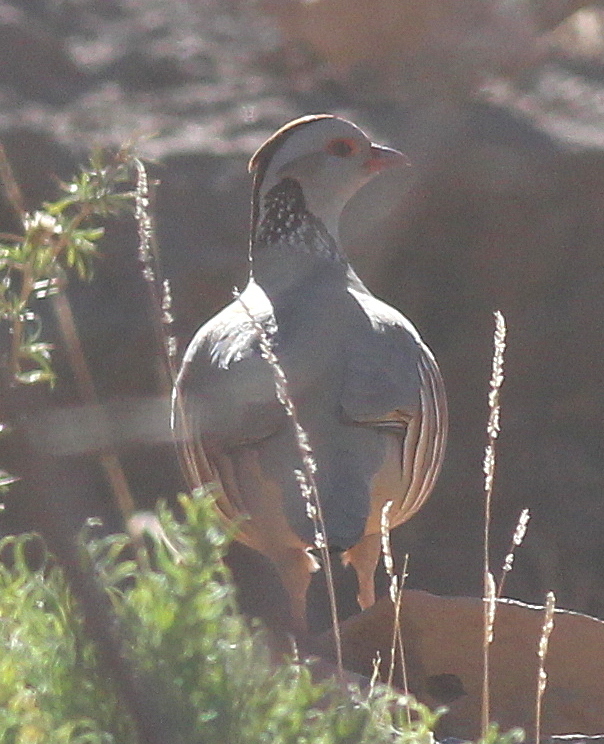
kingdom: Animalia
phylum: Chordata
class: Aves
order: Galliformes
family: Phasianidae
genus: Alectoris
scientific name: Alectoris barbara
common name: Barbary partridge
